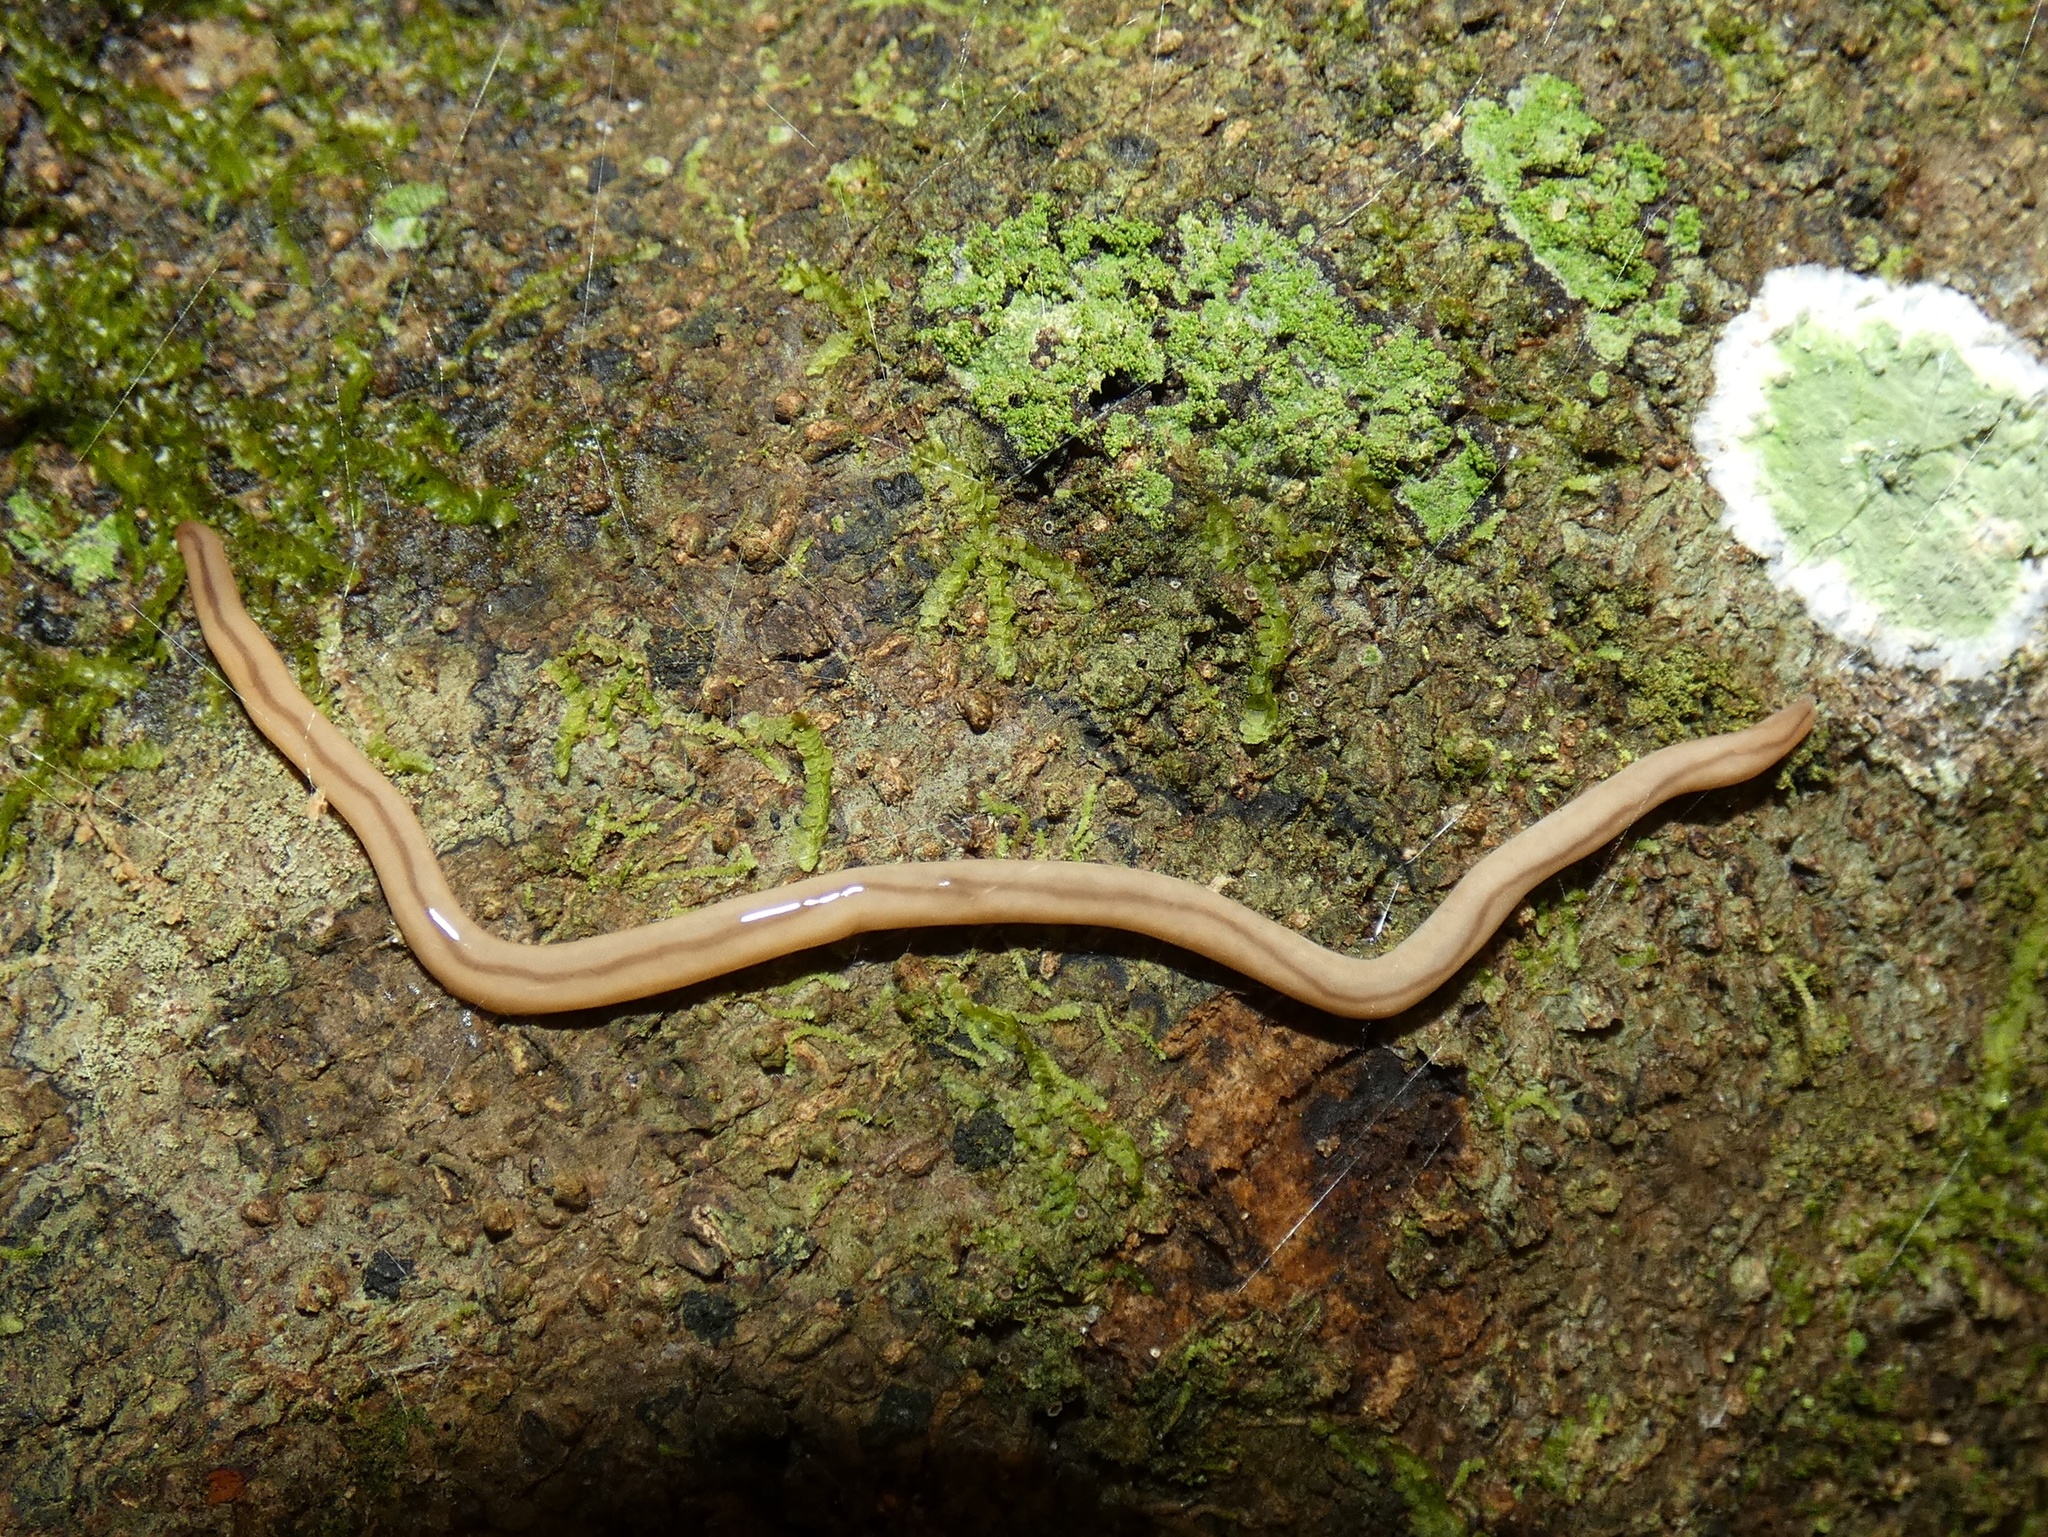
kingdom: Animalia
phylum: Nemertea
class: Hoplonemertea
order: Monostilifera
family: Prosorhochmidae
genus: Geonemertes
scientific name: Geonemertes pelaensis
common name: Land nemertean
